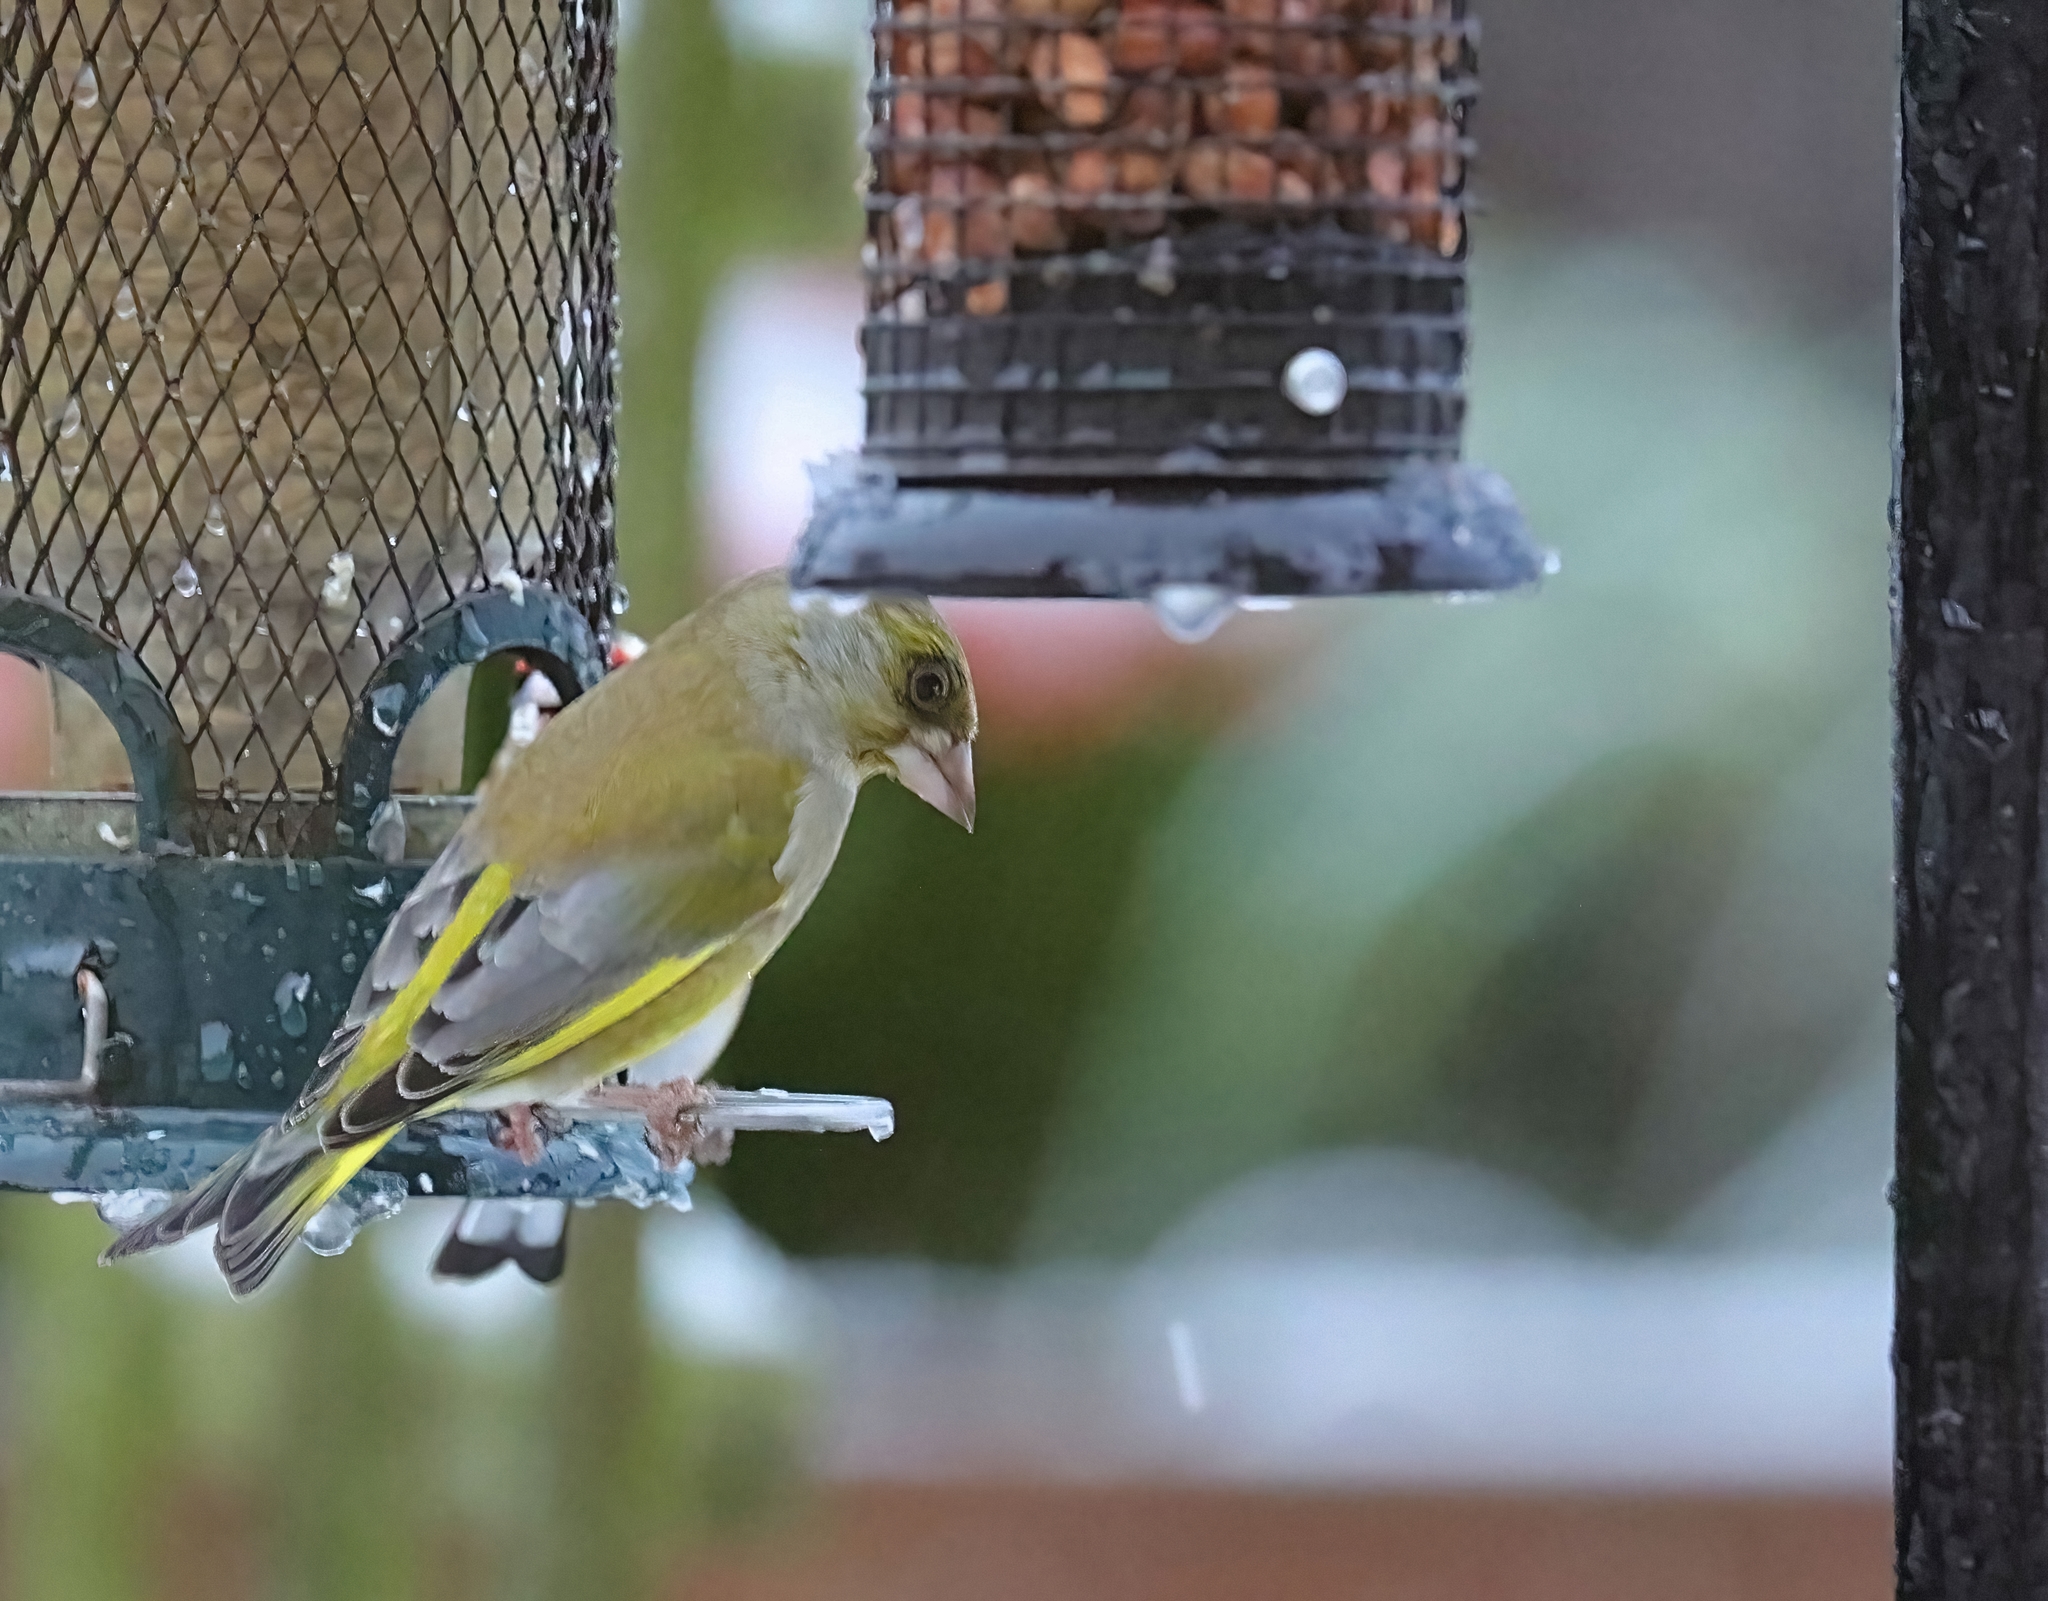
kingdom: Plantae
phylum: Tracheophyta
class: Liliopsida
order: Poales
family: Poaceae
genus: Chloris
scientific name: Chloris chloris
